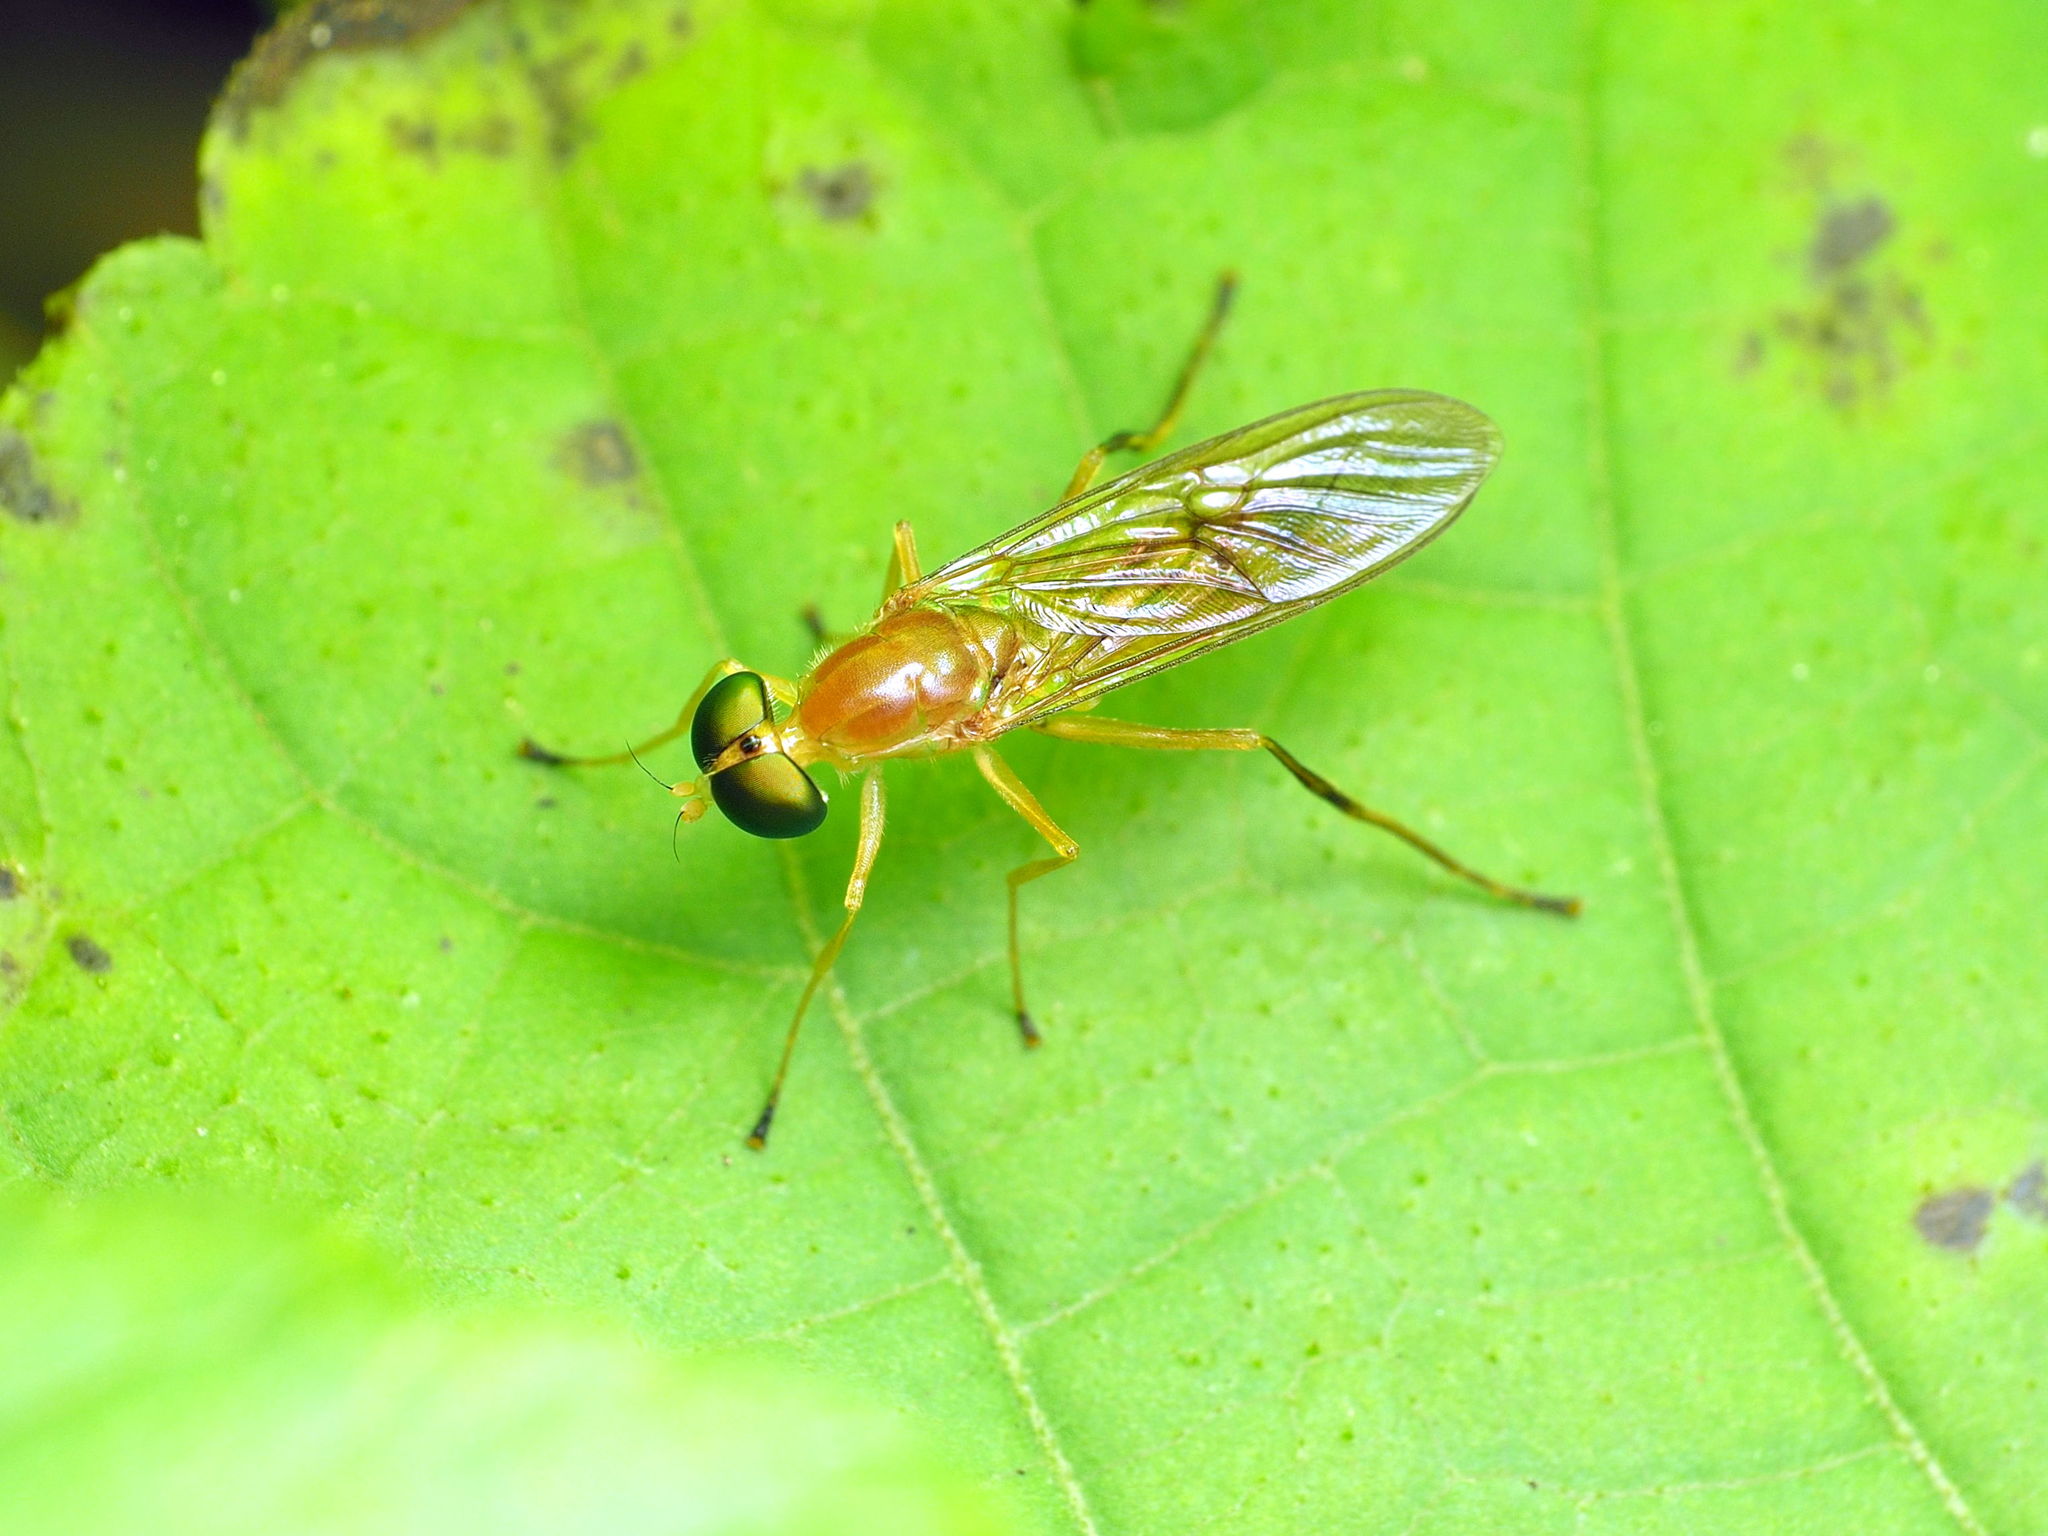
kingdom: Animalia
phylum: Arthropoda
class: Insecta
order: Diptera
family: Stratiomyidae
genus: Ptecticus
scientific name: Ptecticus trivittatus
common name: Compost fly
